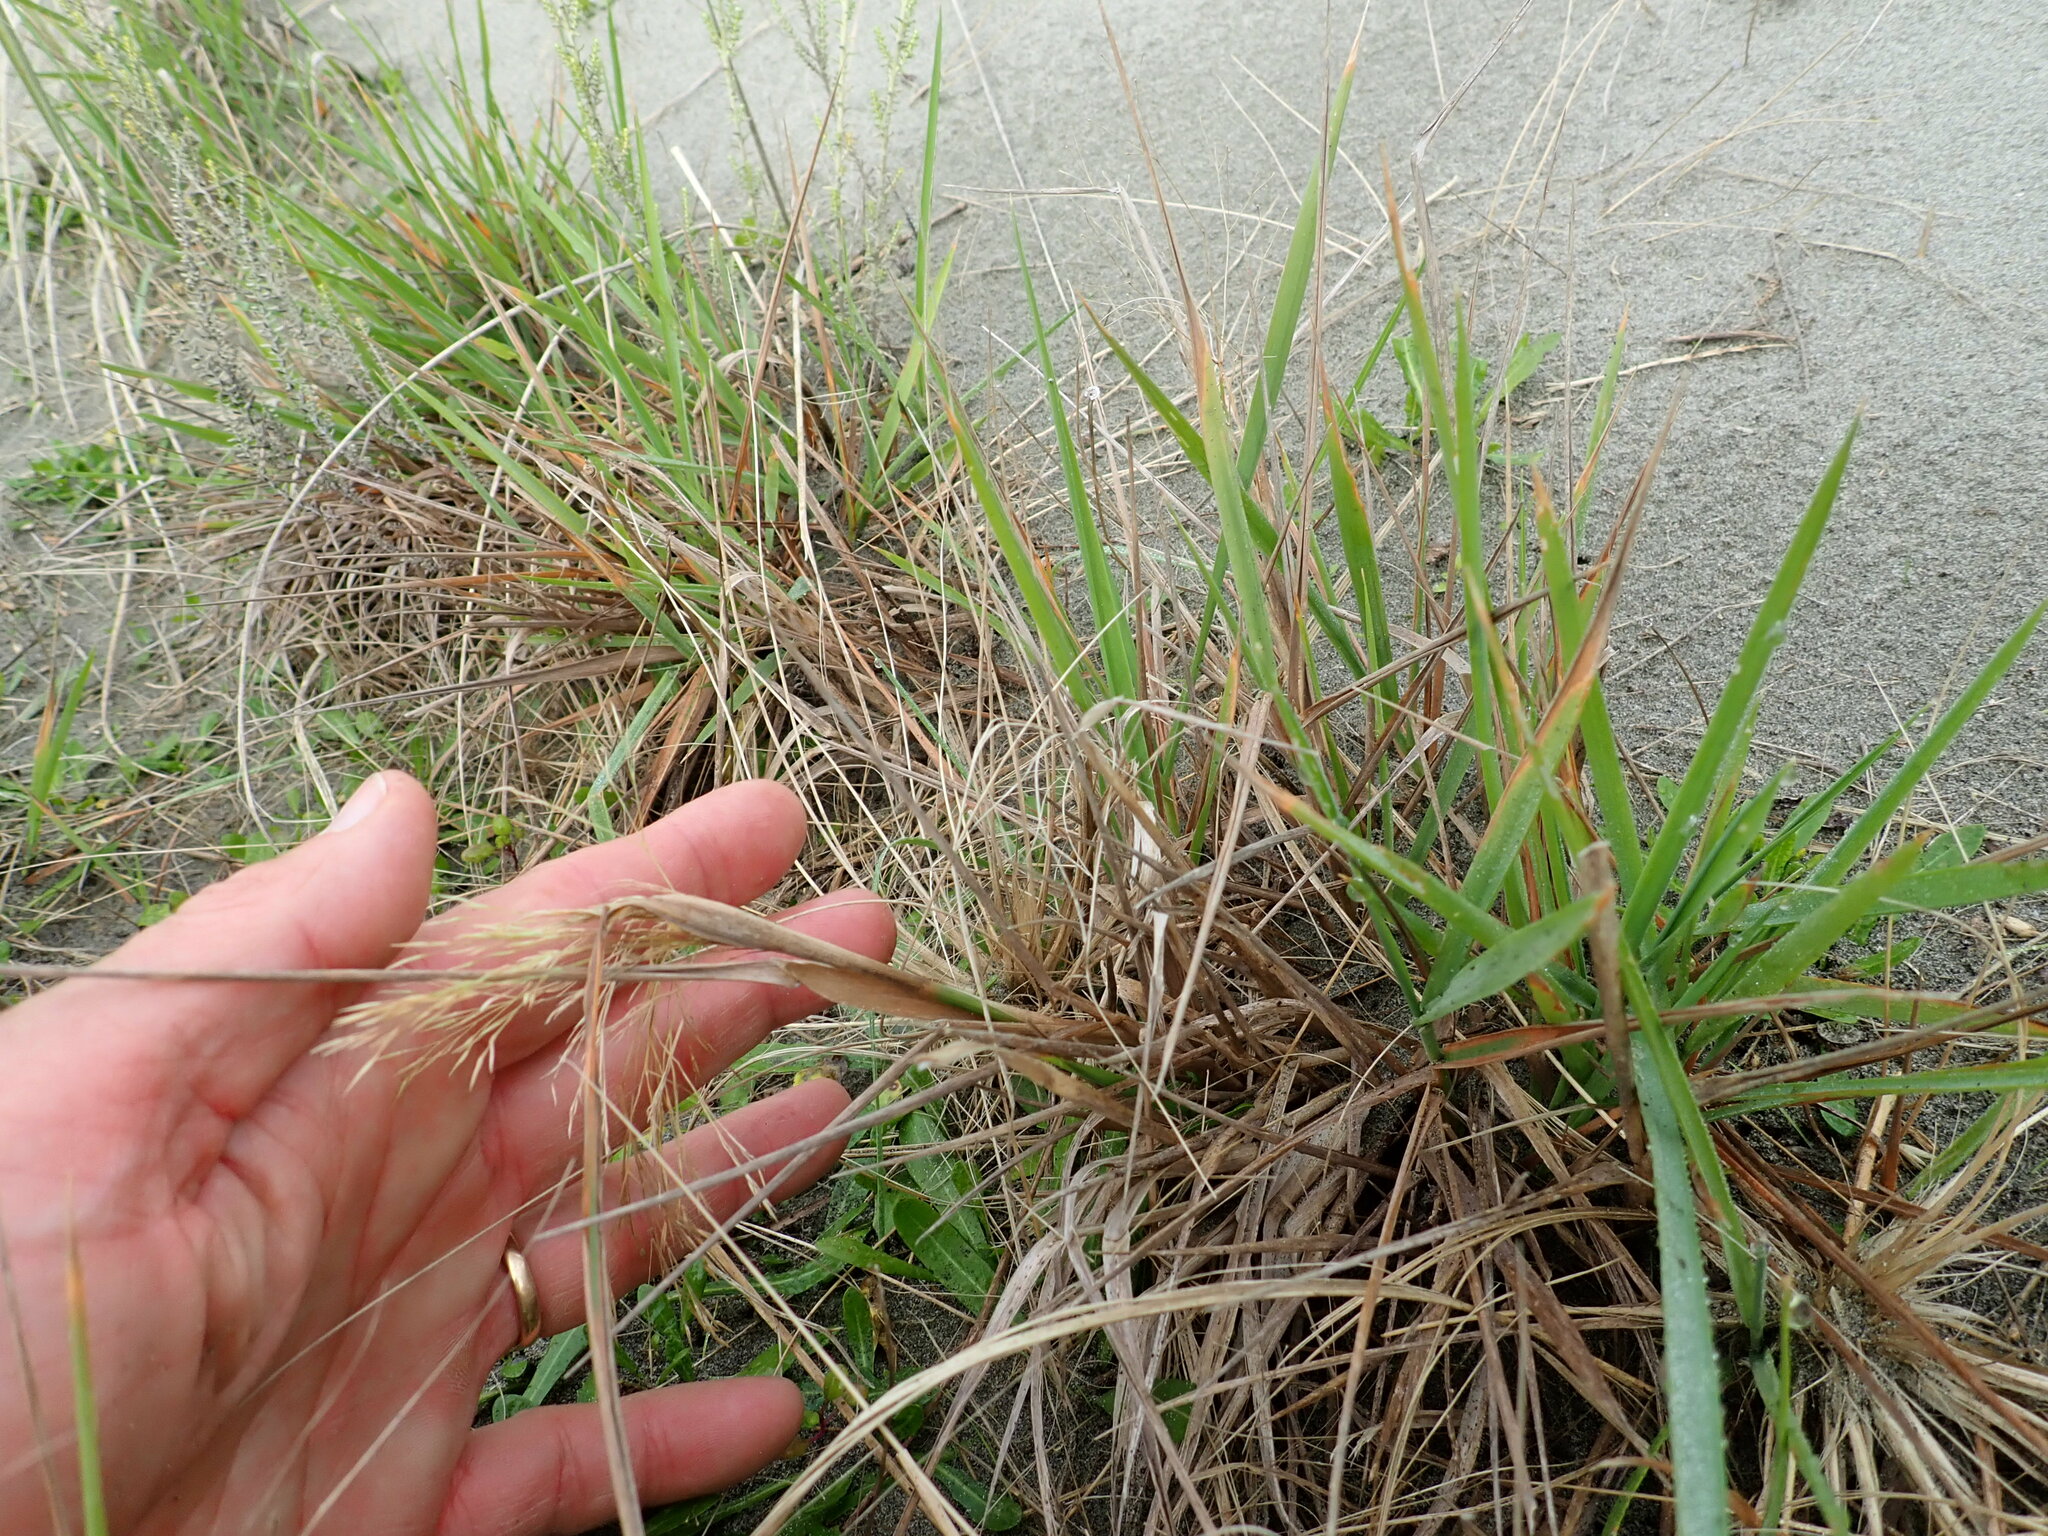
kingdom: Plantae
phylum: Tracheophyta
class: Liliopsida
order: Poales
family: Poaceae
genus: Lachnagrostis
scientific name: Lachnagrostis billardierei
